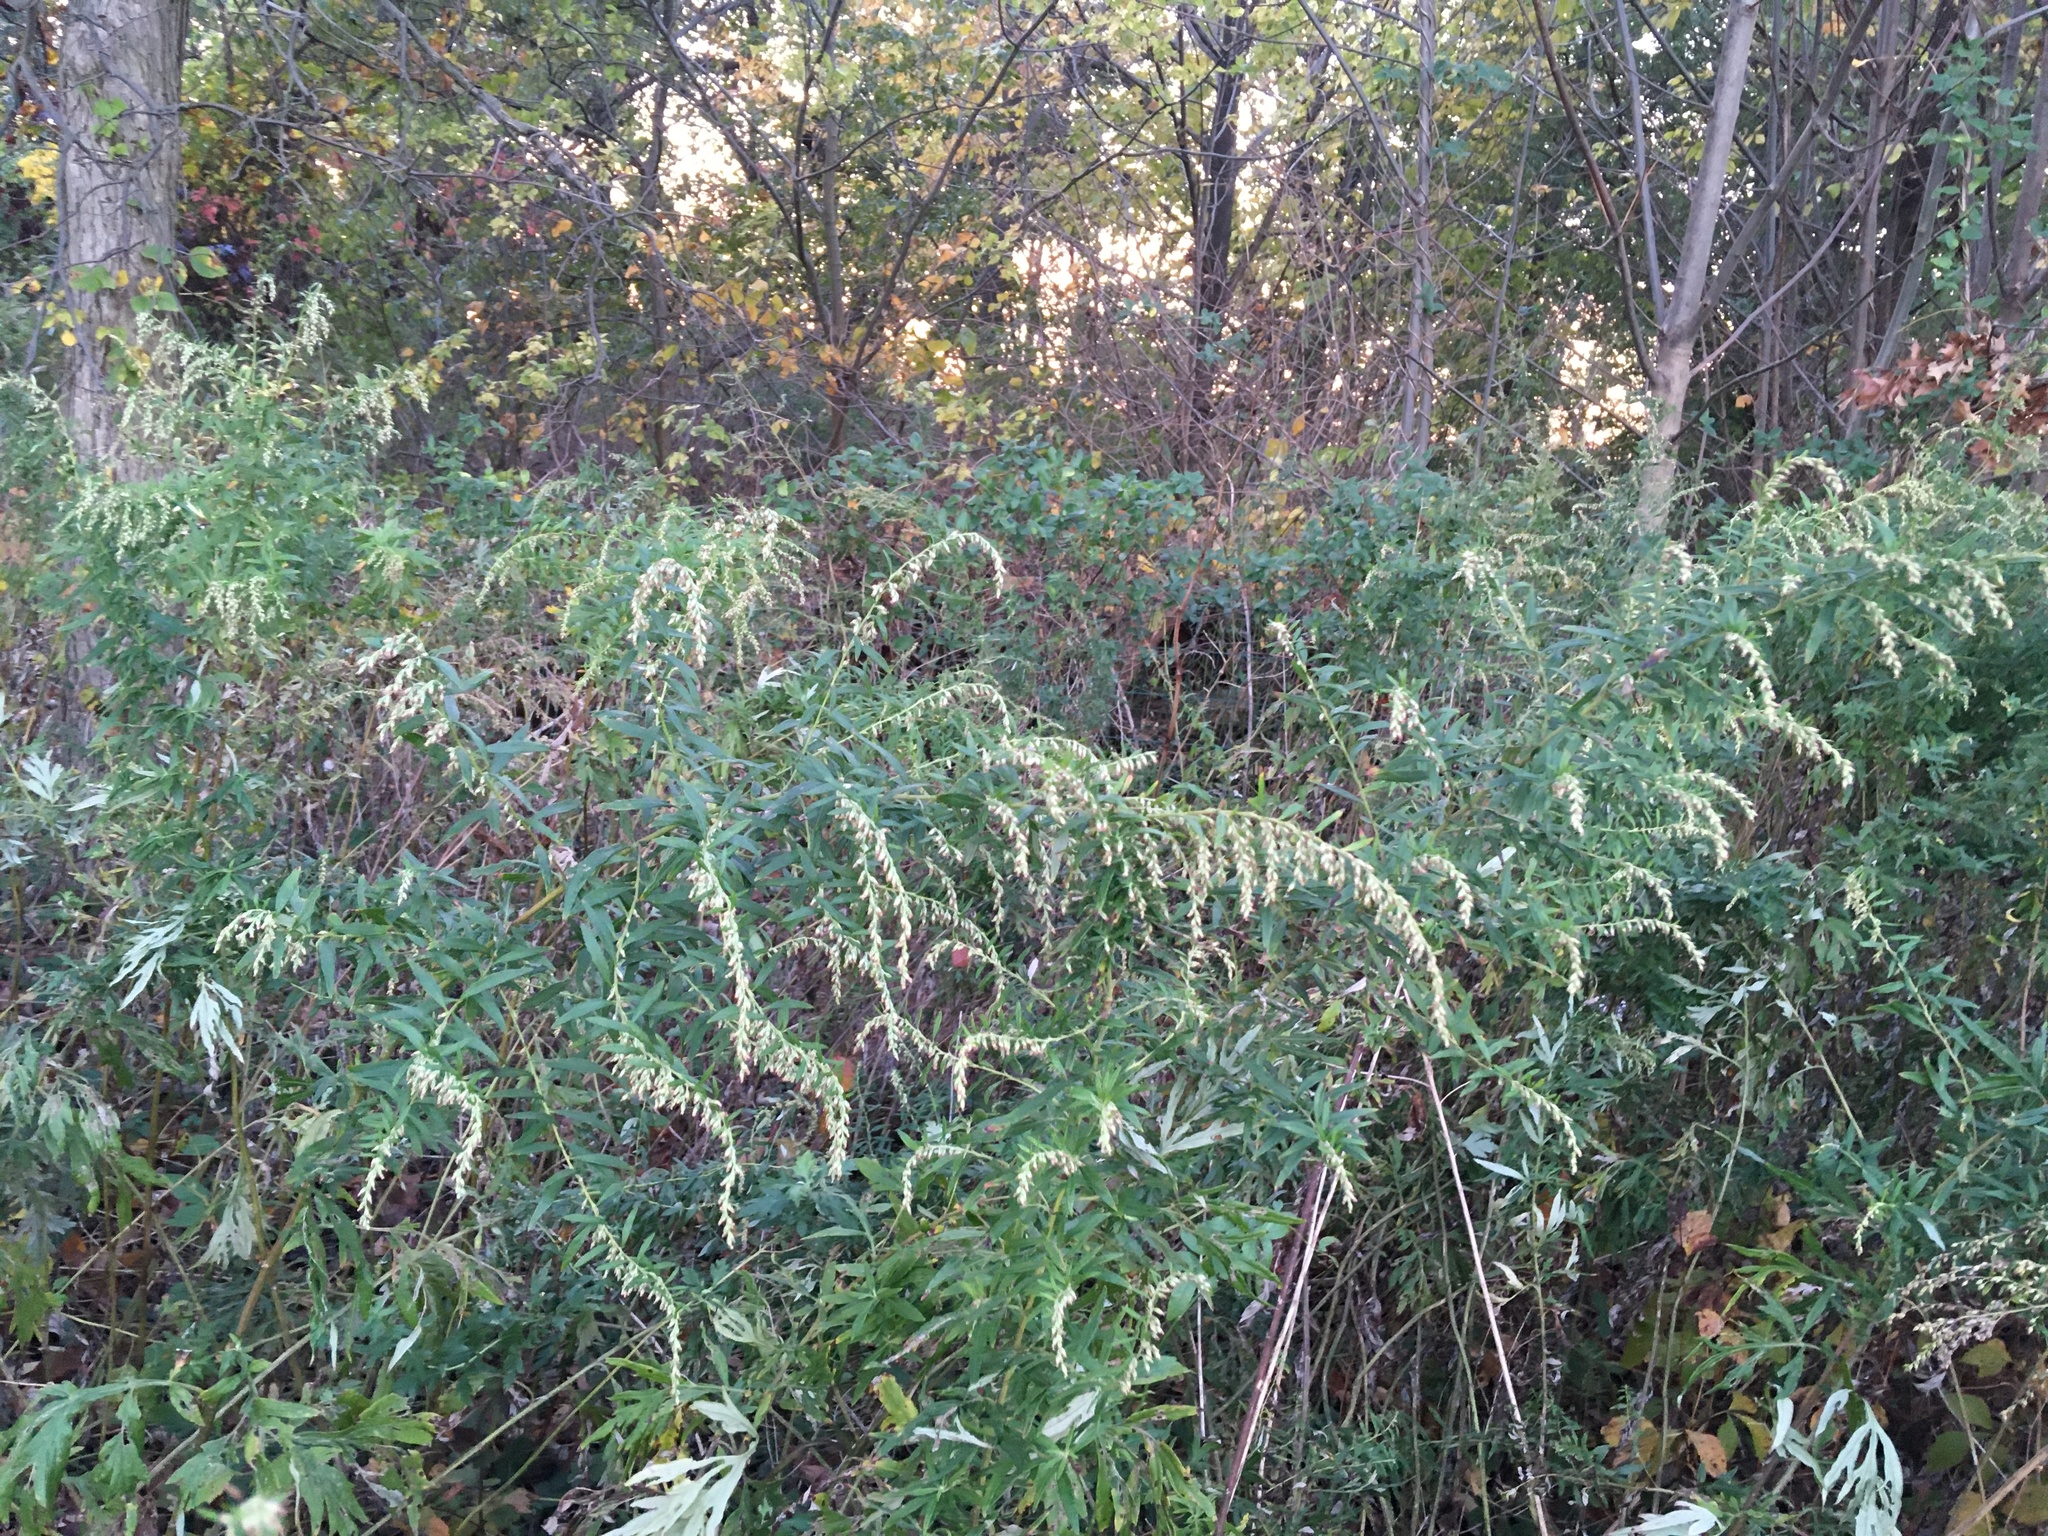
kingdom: Plantae
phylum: Tracheophyta
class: Magnoliopsida
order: Asterales
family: Asteraceae
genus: Artemisia
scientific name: Artemisia vulgaris
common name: Mugwort
